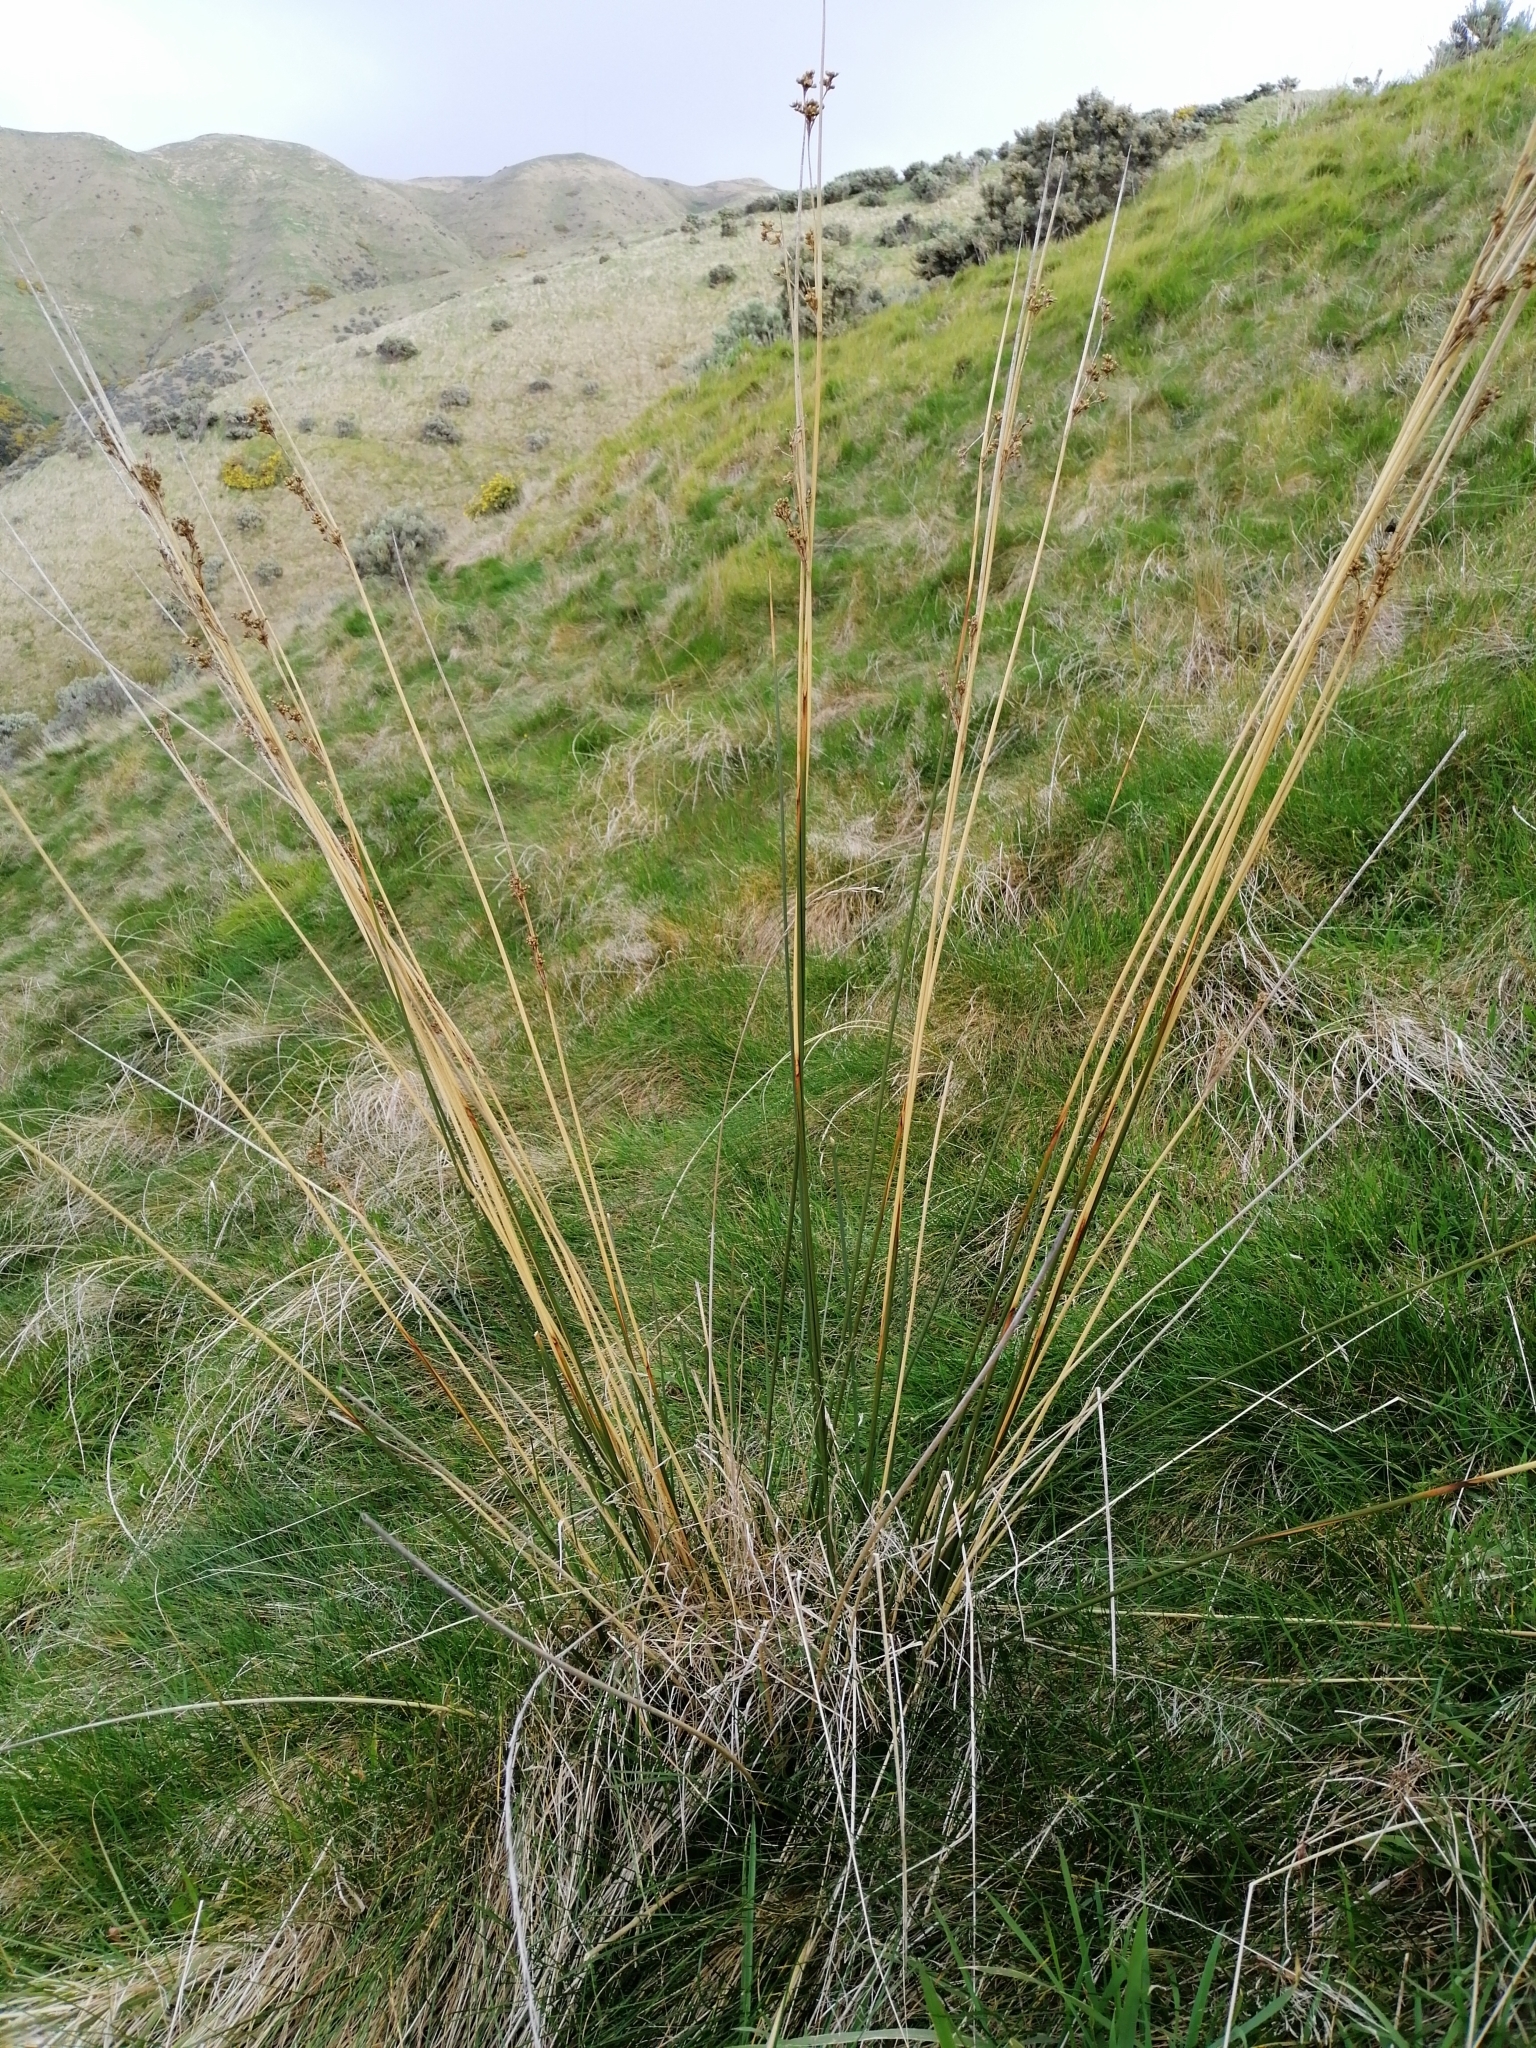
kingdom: Plantae
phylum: Tracheophyta
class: Liliopsida
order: Poales
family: Juncaceae
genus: Juncus
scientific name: Juncus edgariae
